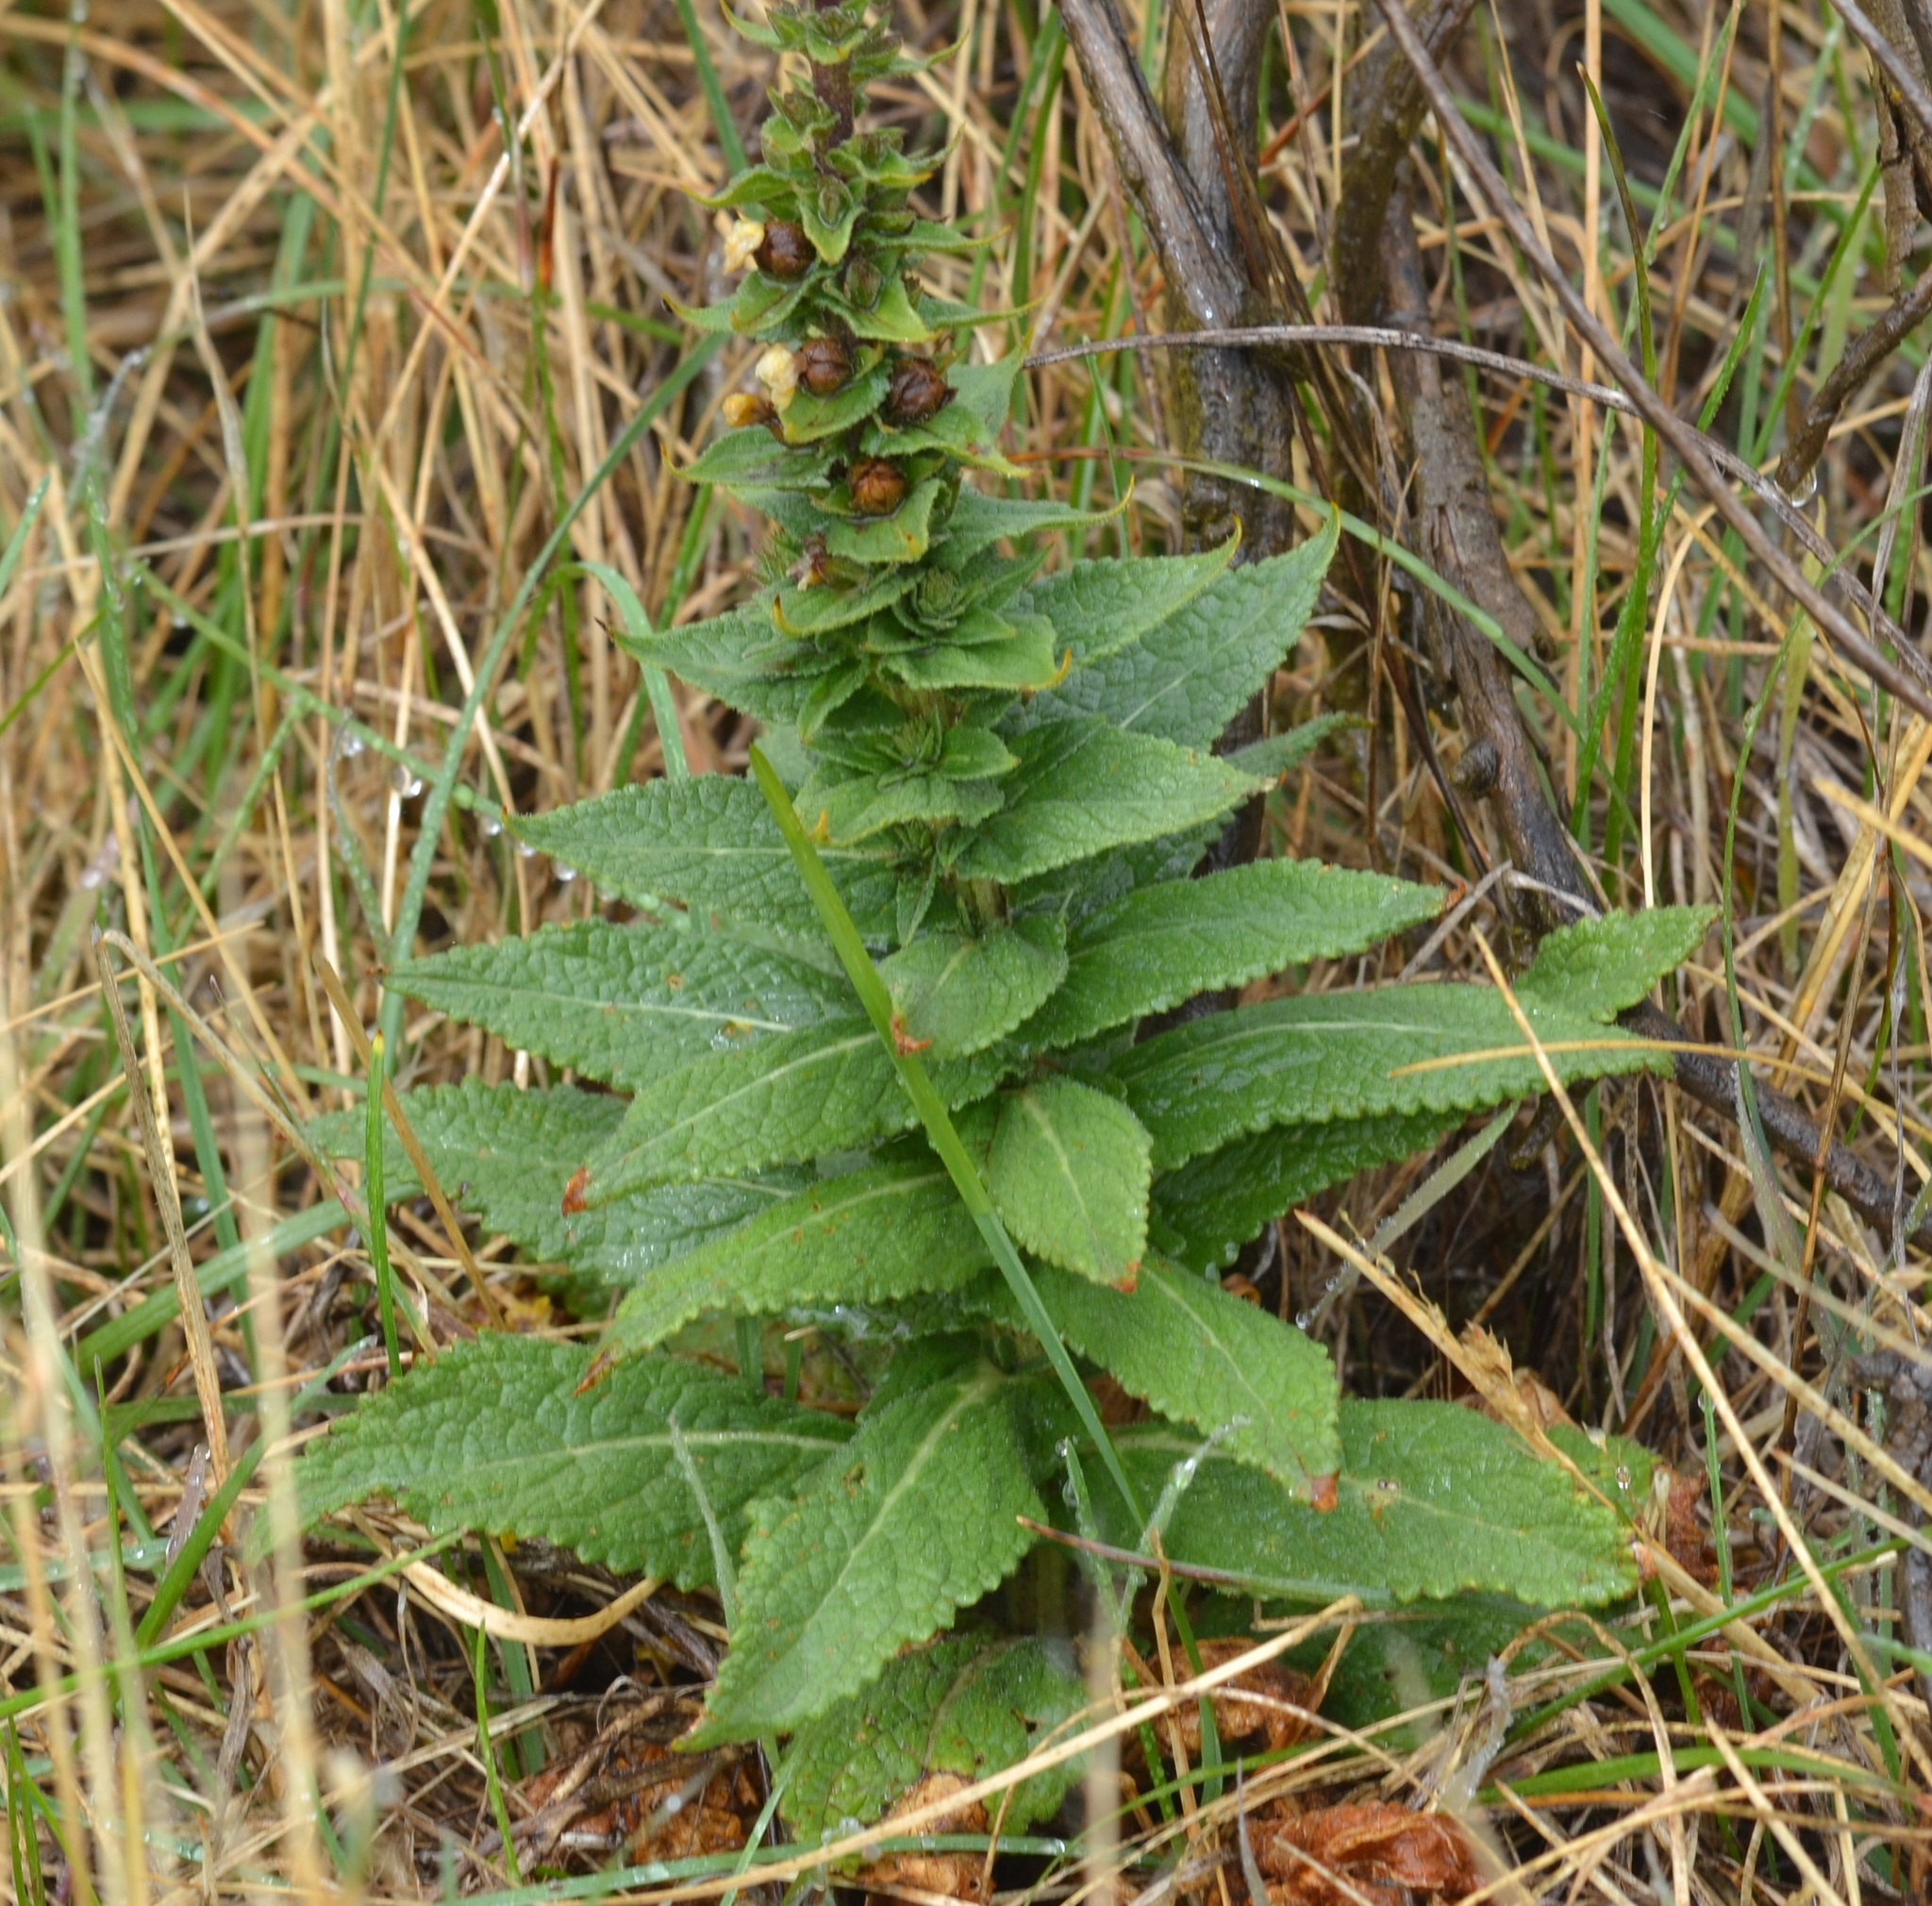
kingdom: Plantae
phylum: Tracheophyta
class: Magnoliopsida
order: Lamiales
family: Scrophulariaceae
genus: Verbascum
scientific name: Verbascum virgatum
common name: Twiggy mullein
